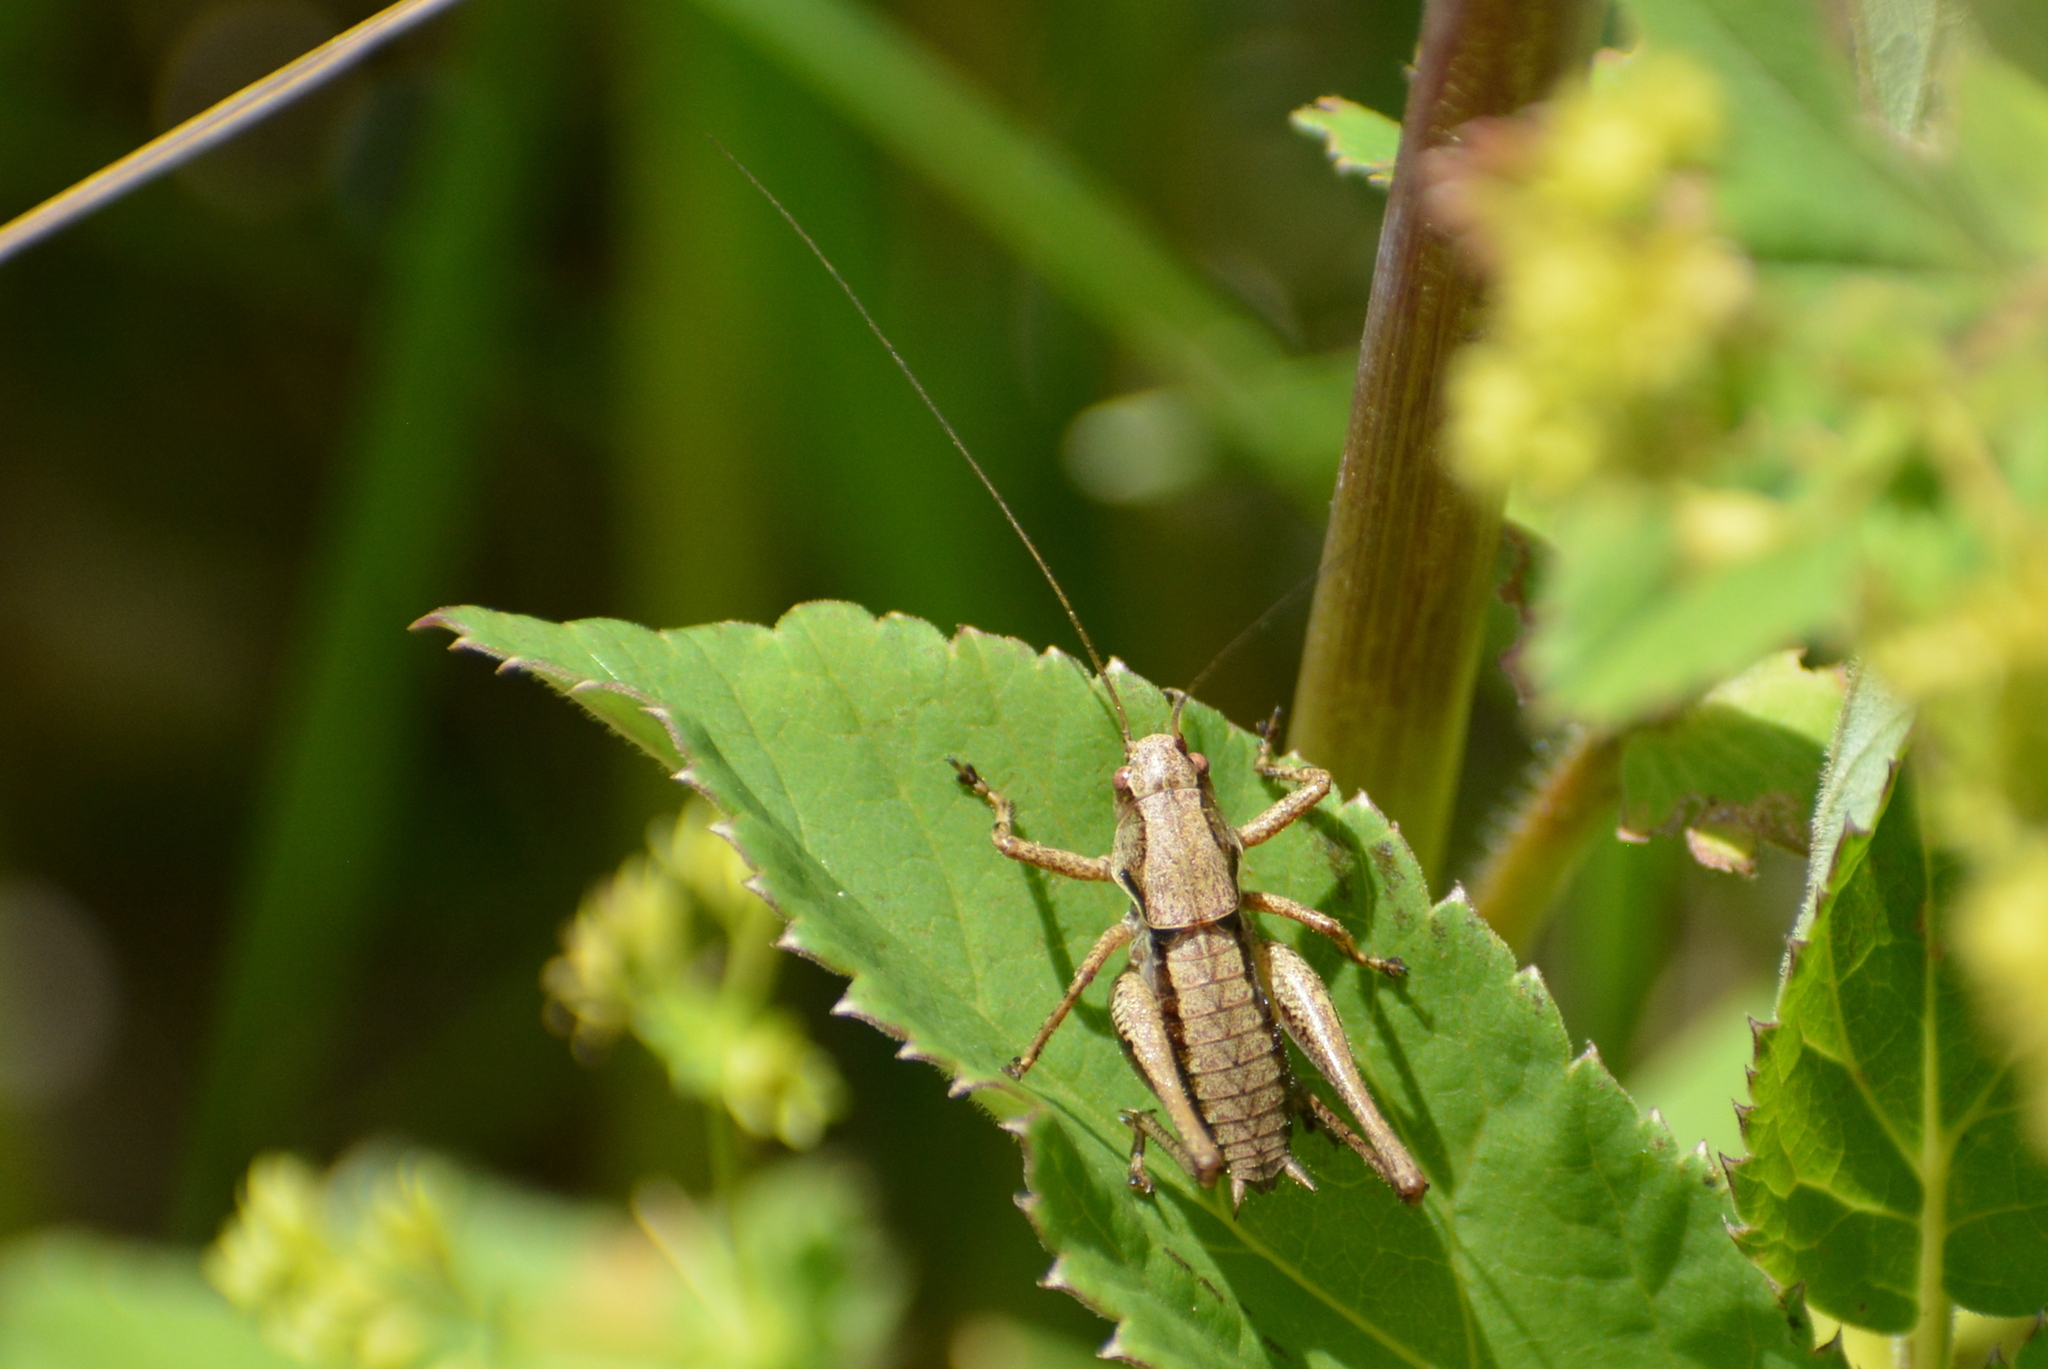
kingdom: Animalia
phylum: Arthropoda
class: Insecta
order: Orthoptera
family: Tettigoniidae
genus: Pholidoptera
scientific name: Pholidoptera griseoaptera
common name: Dark bush-cricket
